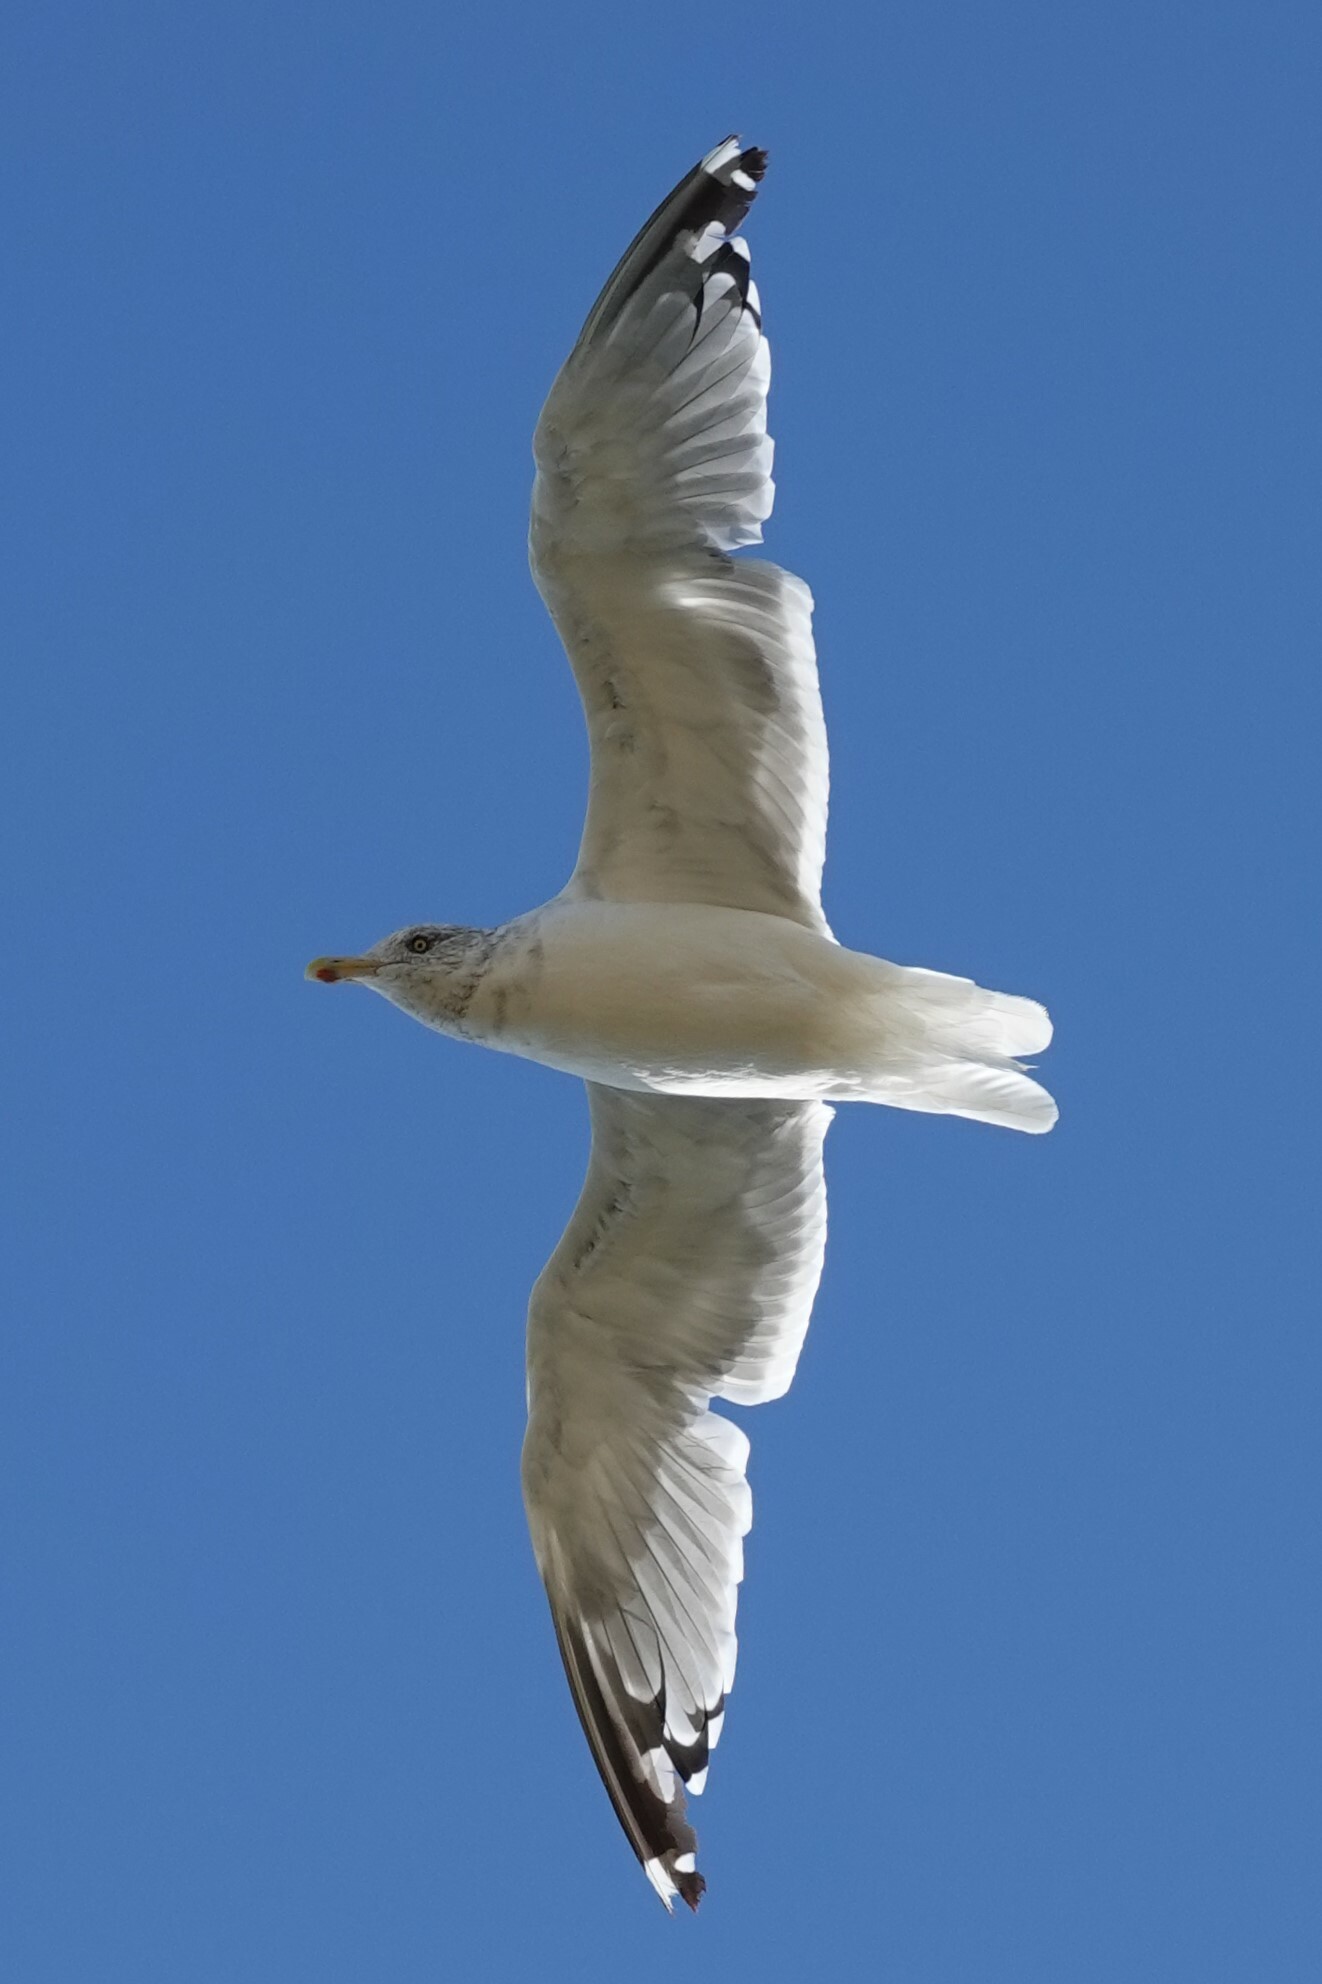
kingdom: Animalia
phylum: Chordata
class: Aves
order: Charadriiformes
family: Laridae
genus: Larus
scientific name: Larus argentatus
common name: Herring gull
